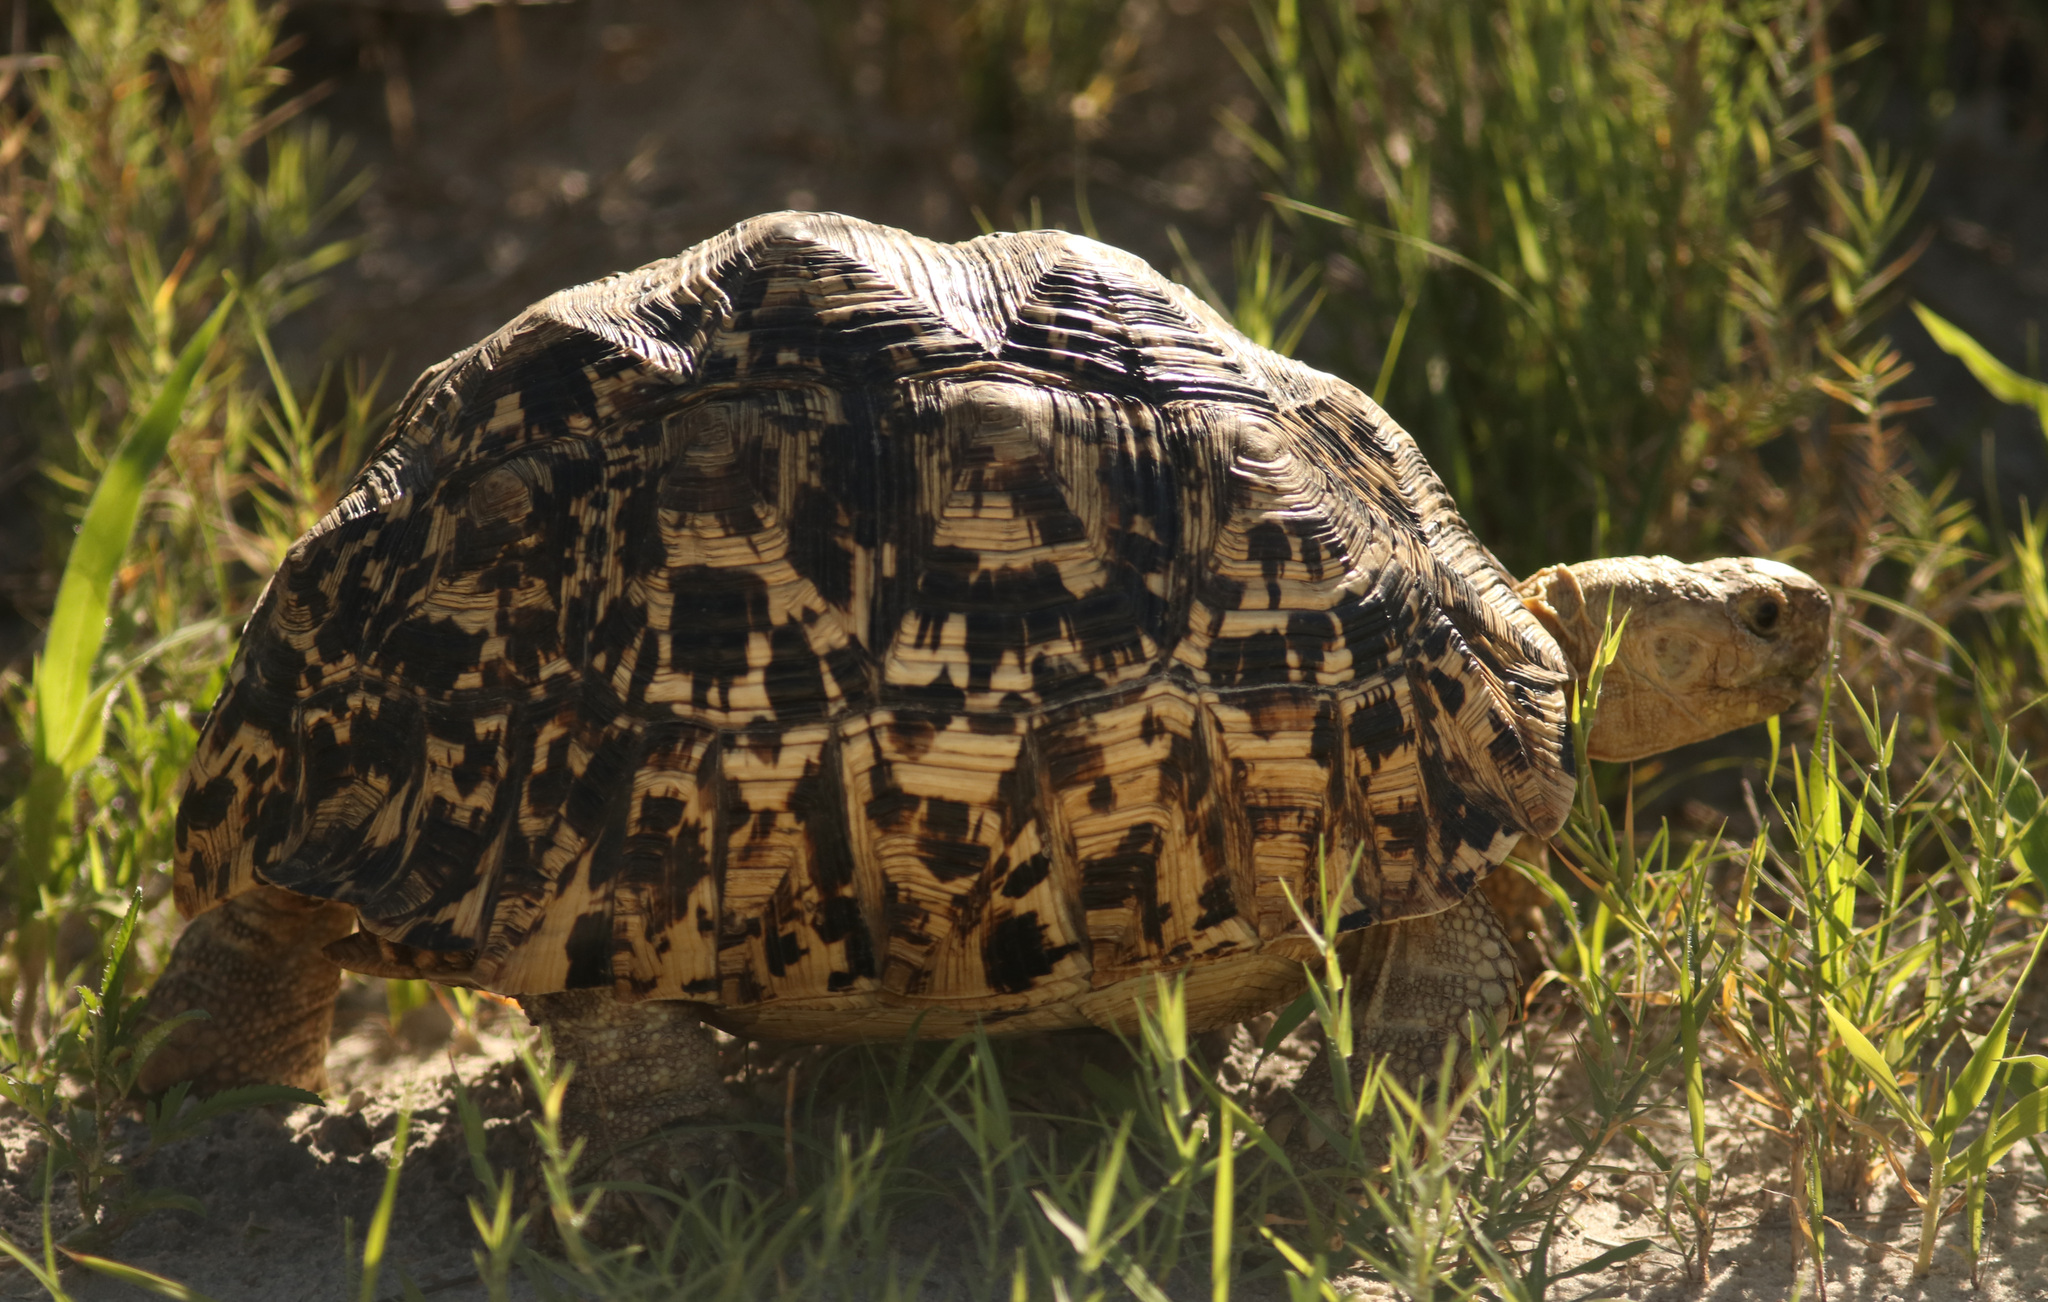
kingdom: Animalia
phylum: Chordata
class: Testudines
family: Testudinidae
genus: Stigmochelys
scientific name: Stigmochelys pardalis
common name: Leopard tortoise
